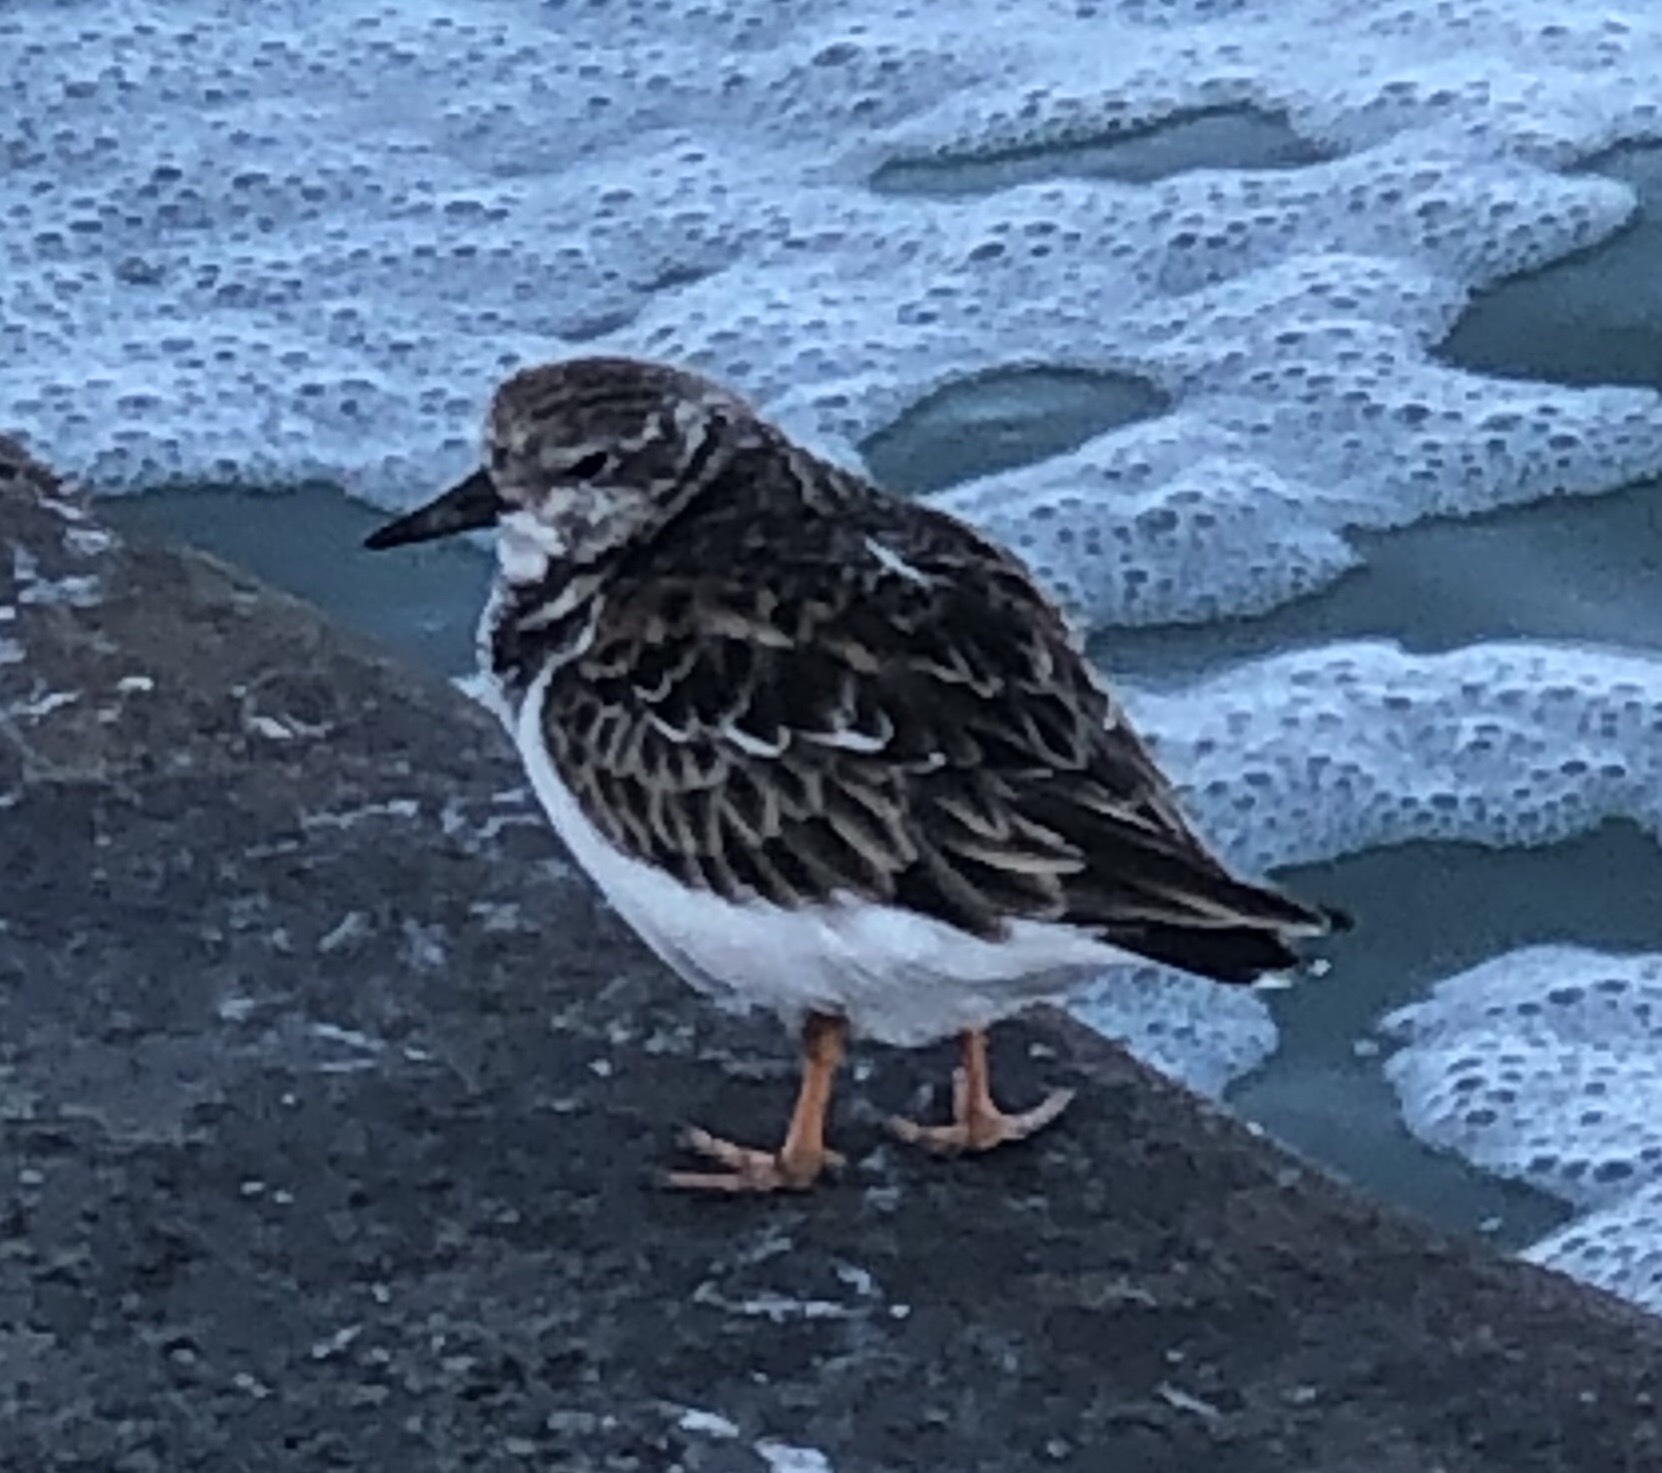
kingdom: Animalia
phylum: Chordata
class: Aves
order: Charadriiformes
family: Scolopacidae
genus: Arenaria
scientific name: Arenaria interpres
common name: Ruddy turnstone
